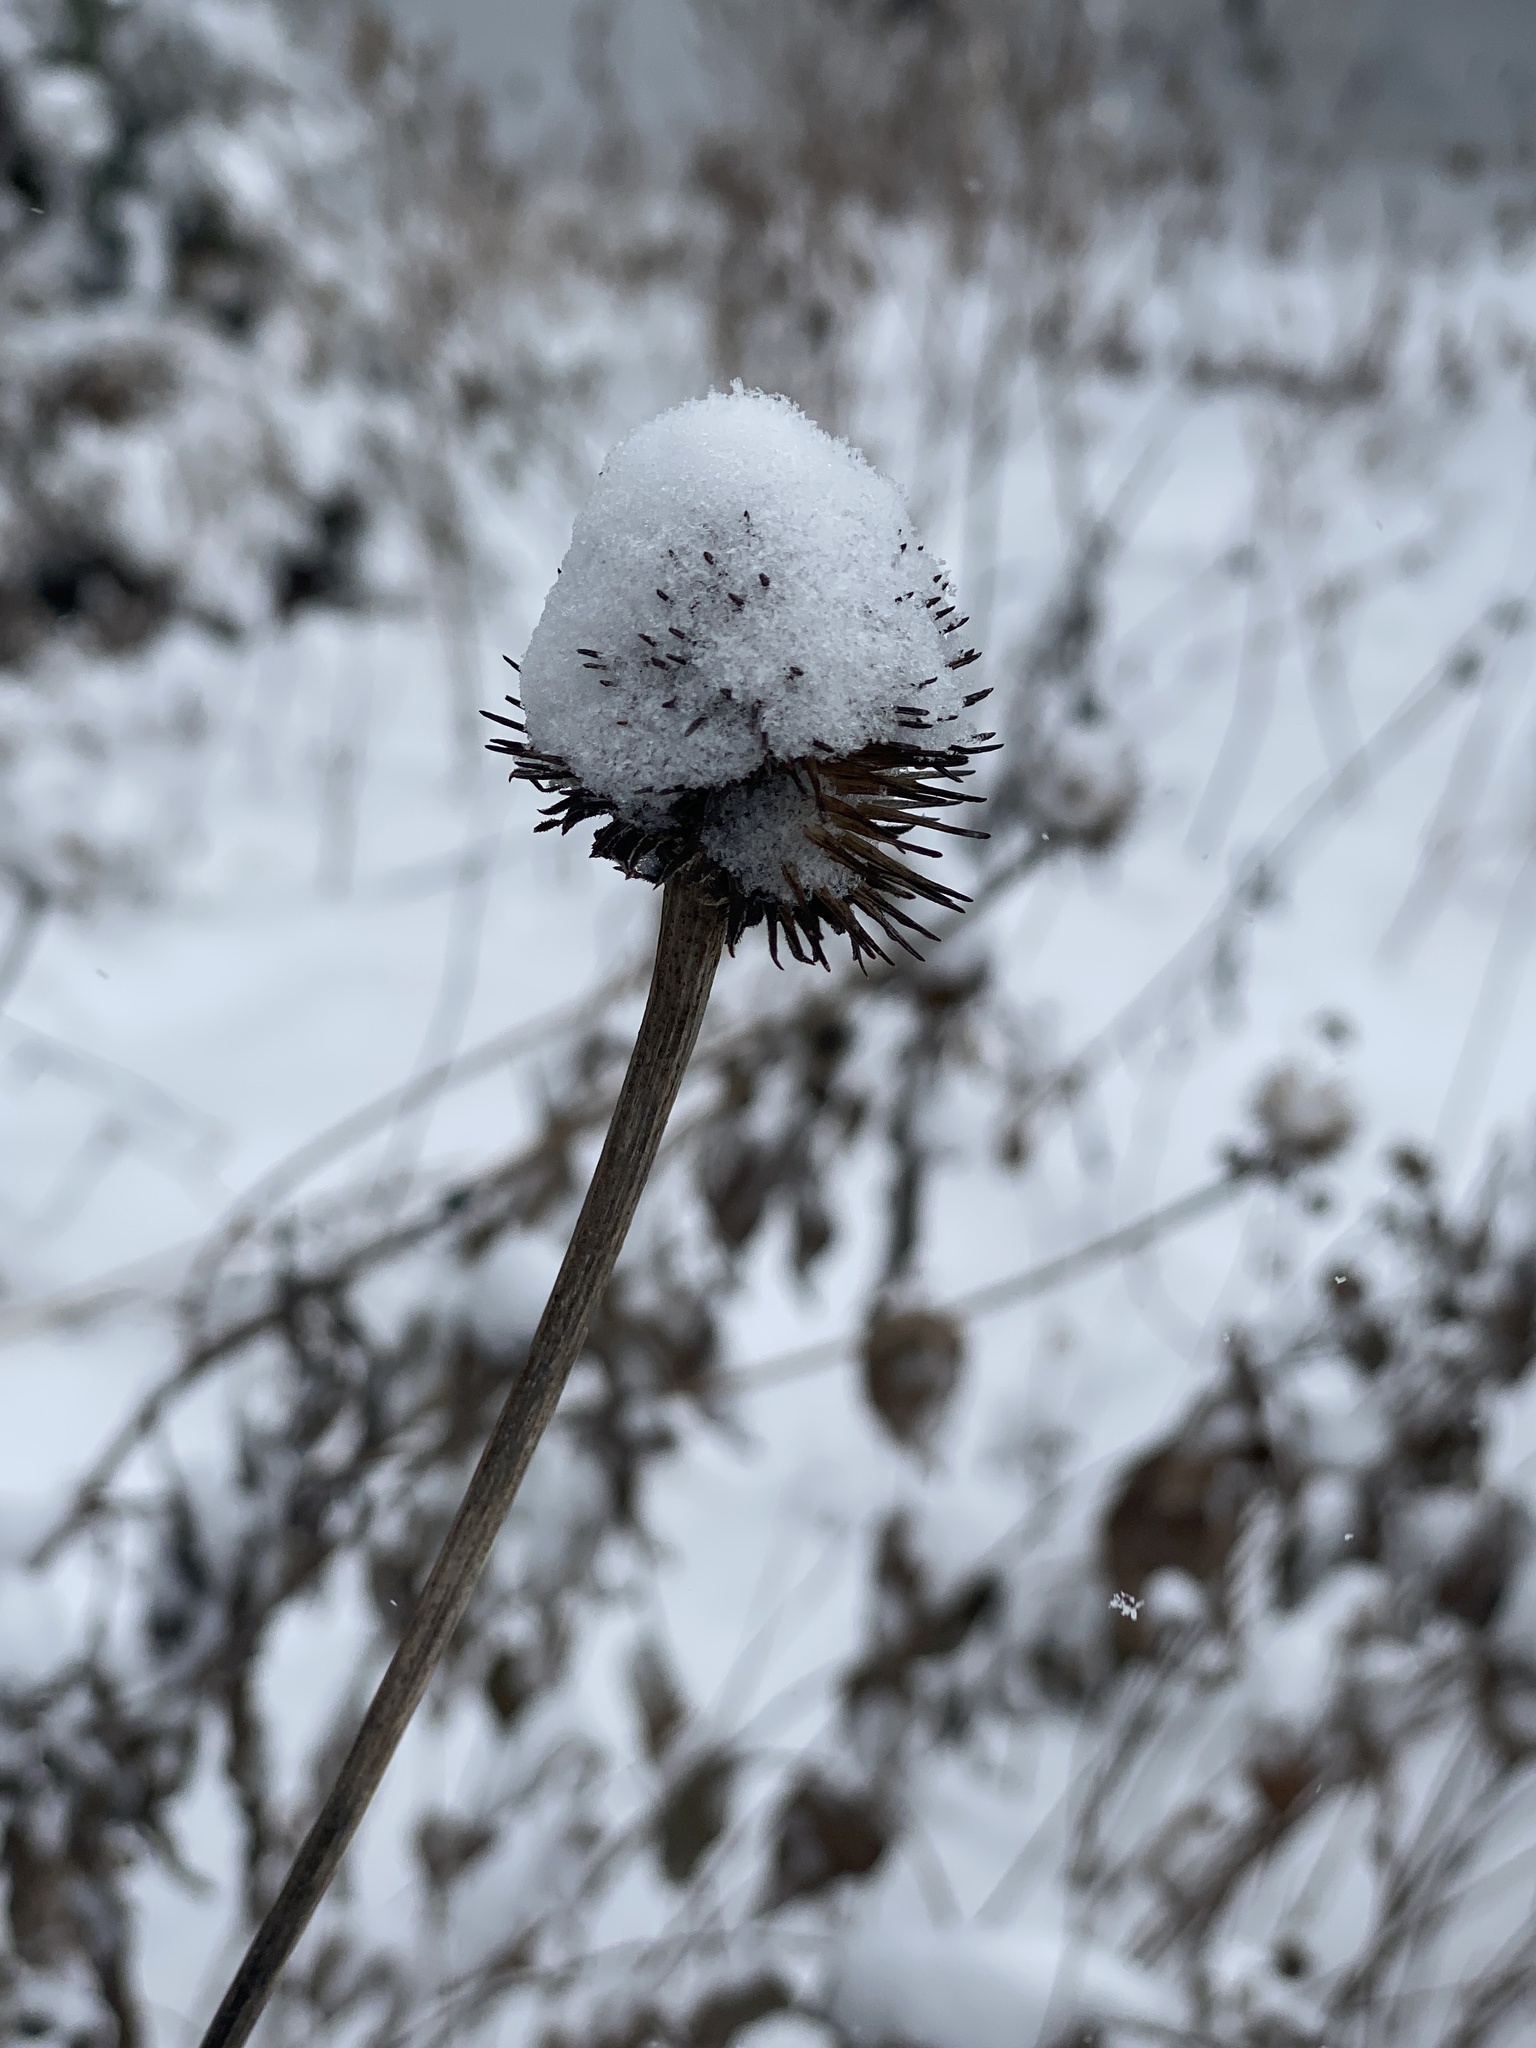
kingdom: Plantae
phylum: Tracheophyta
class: Magnoliopsida
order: Asterales
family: Asteraceae
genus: Echinacea
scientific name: Echinacea purpurea
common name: Broad-leaved purple coneflower
